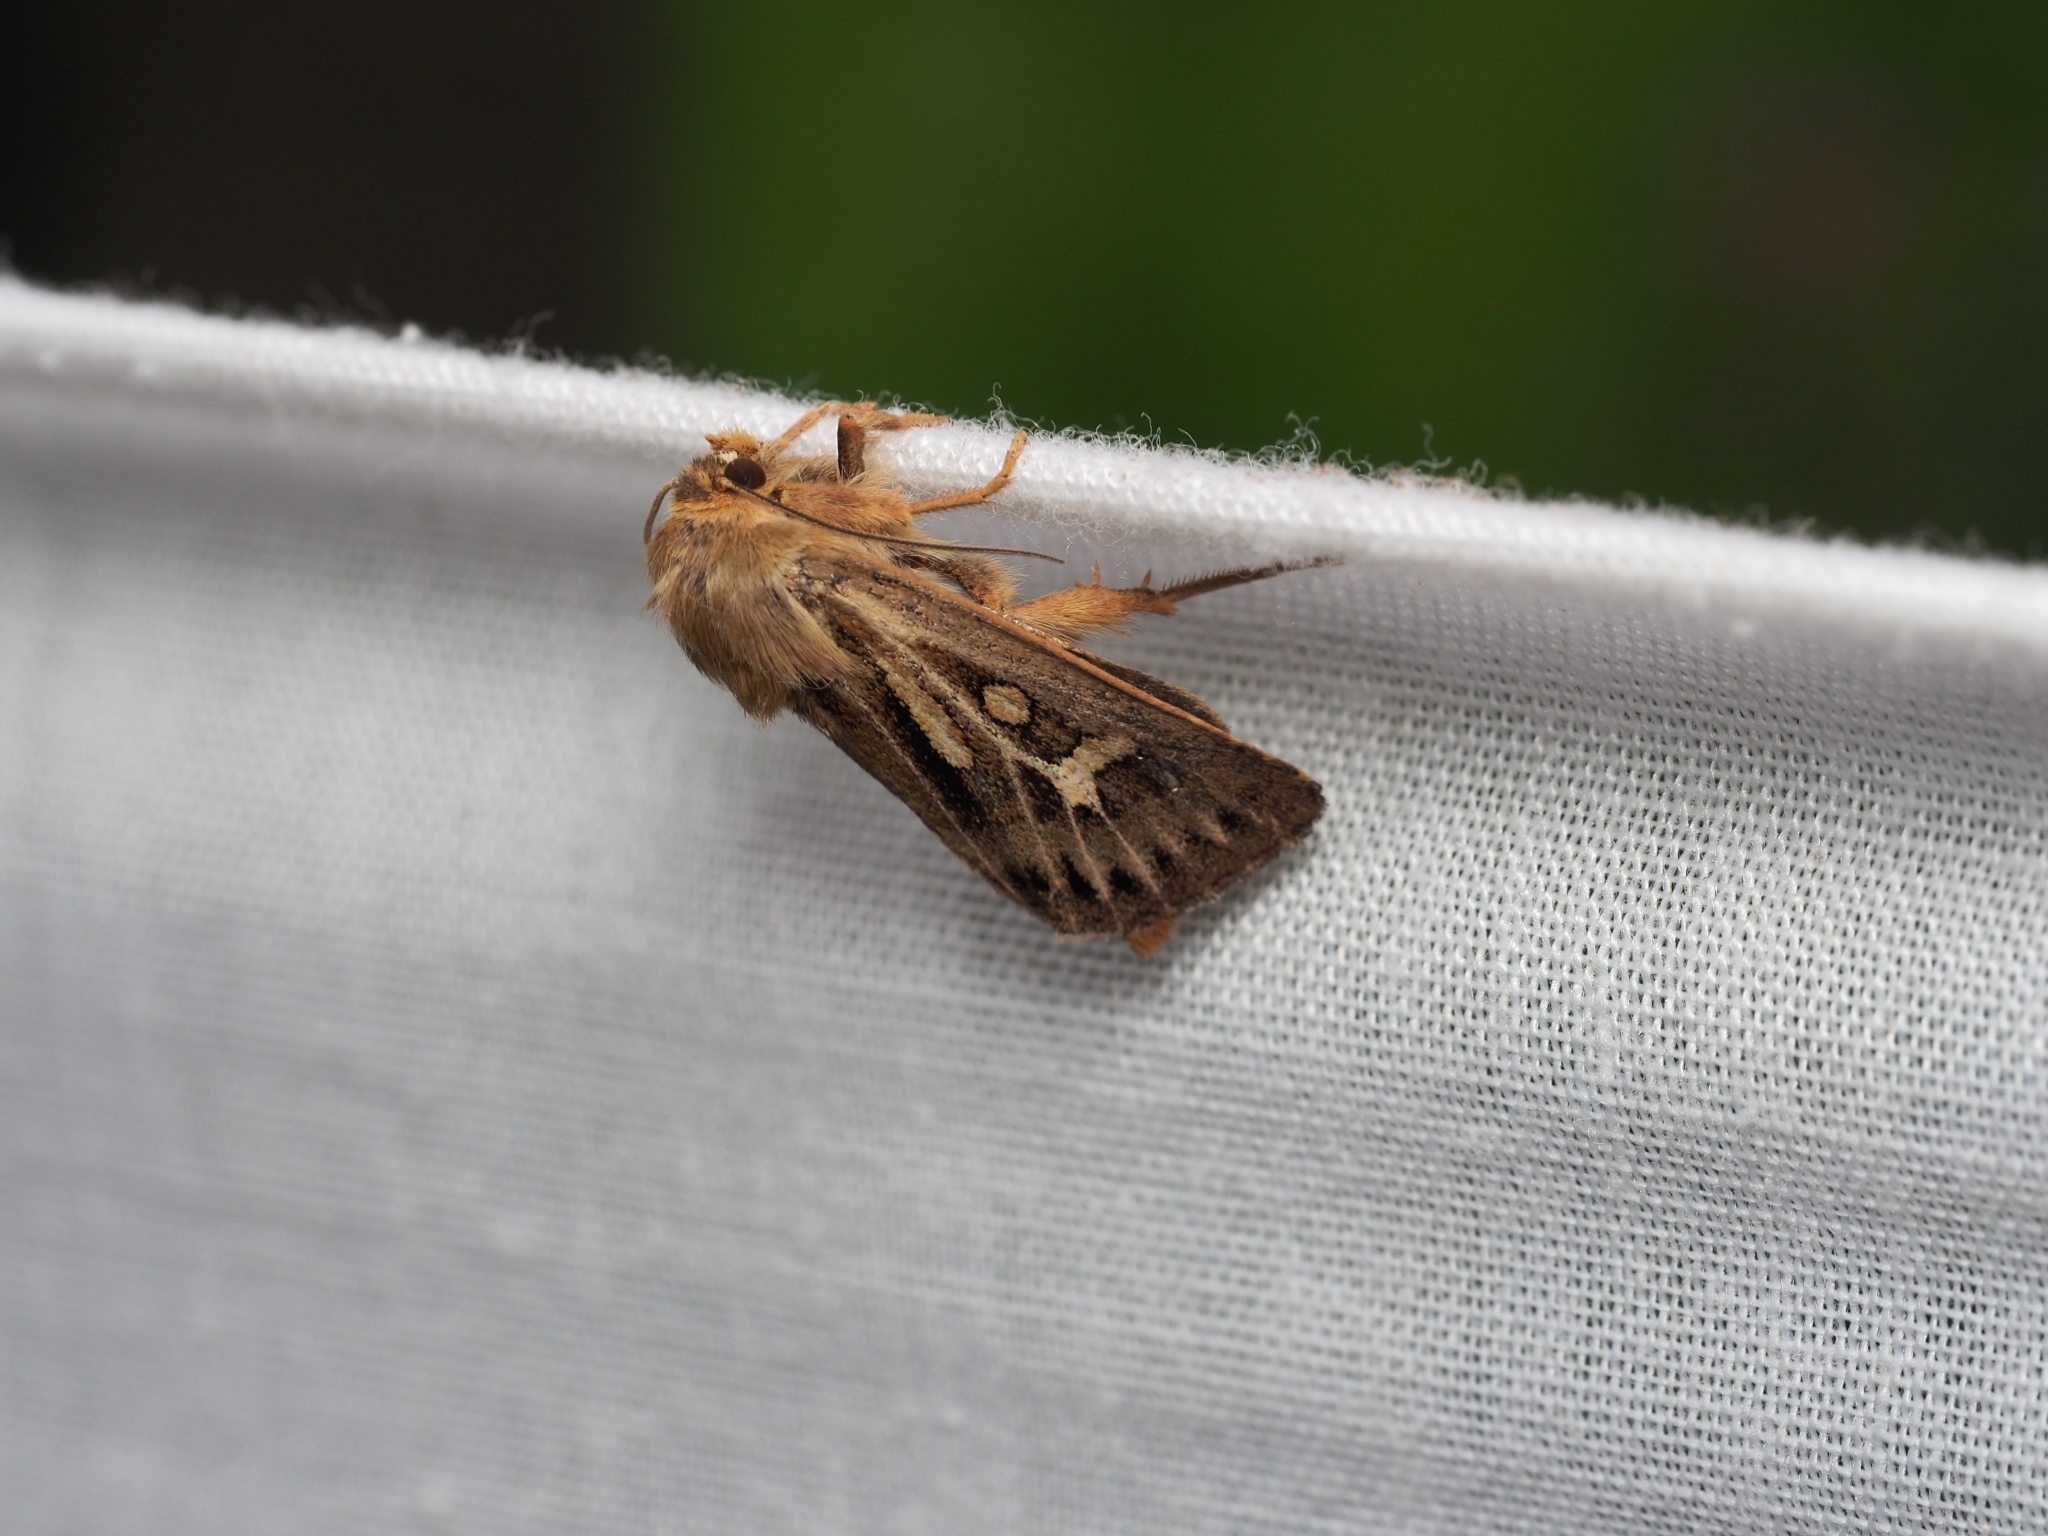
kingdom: Animalia
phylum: Arthropoda
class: Insecta
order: Lepidoptera
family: Noctuidae
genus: Cerapteryx
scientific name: Cerapteryx graminis
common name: Antler moth
